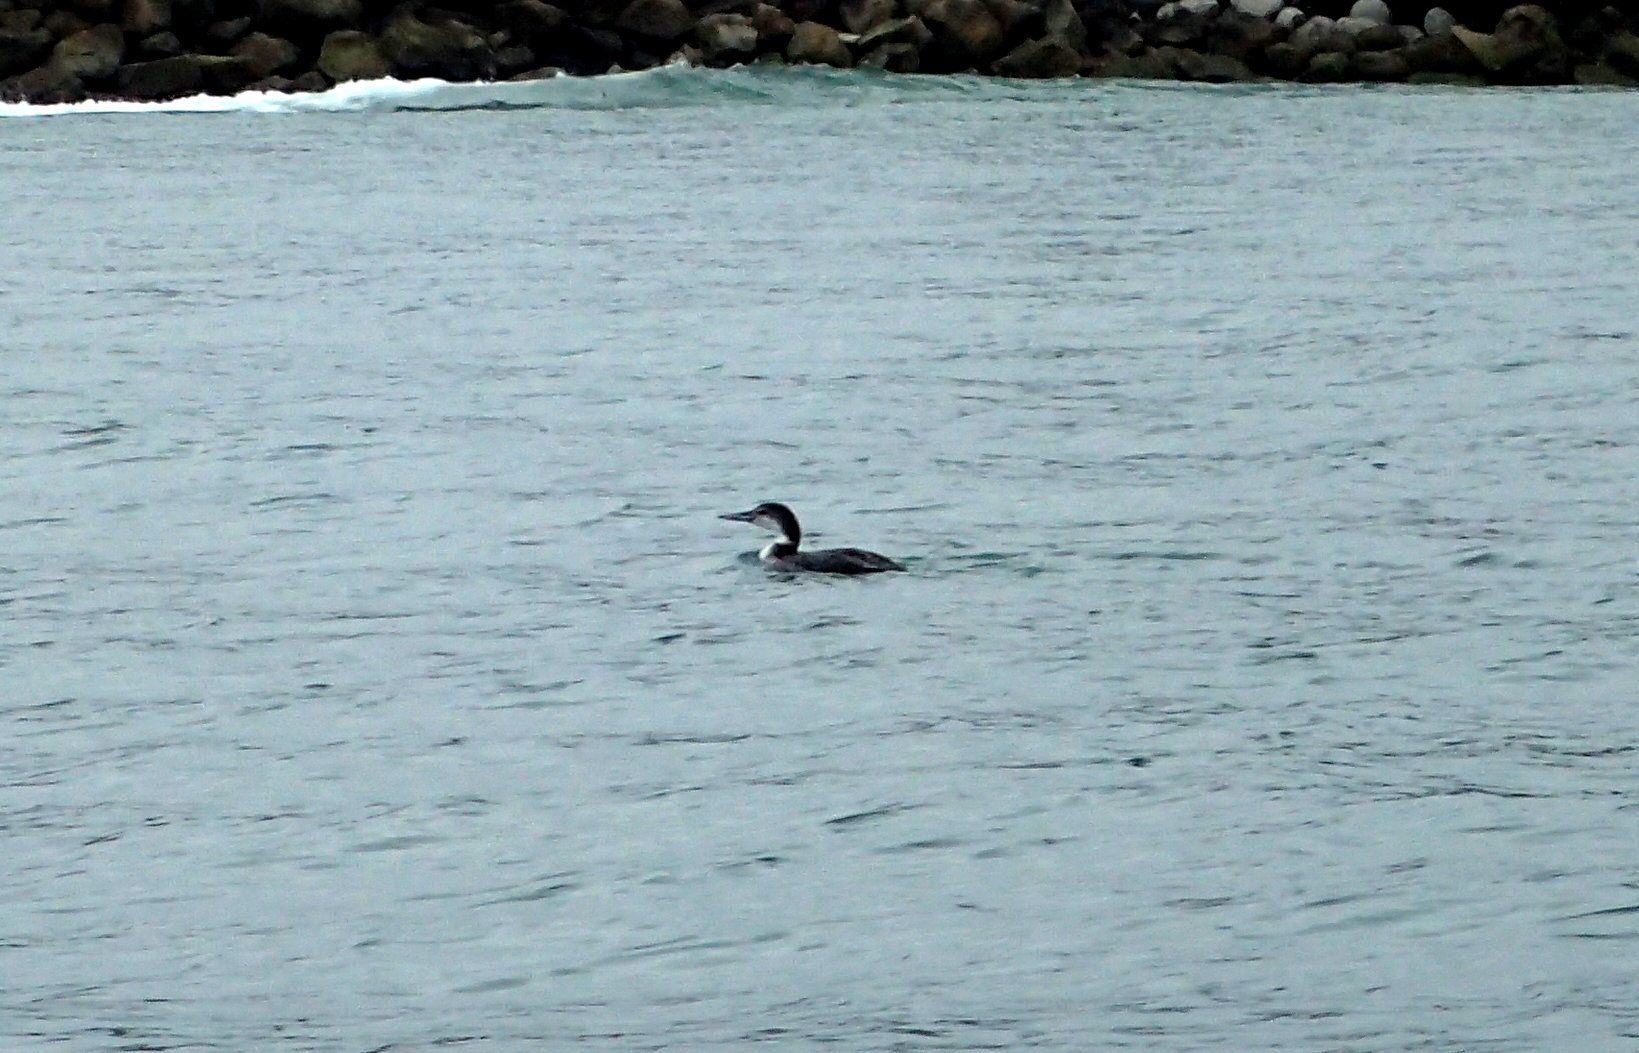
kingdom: Animalia
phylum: Chordata
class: Aves
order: Gaviiformes
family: Gaviidae
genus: Gavia
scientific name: Gavia immer
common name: Common loon
